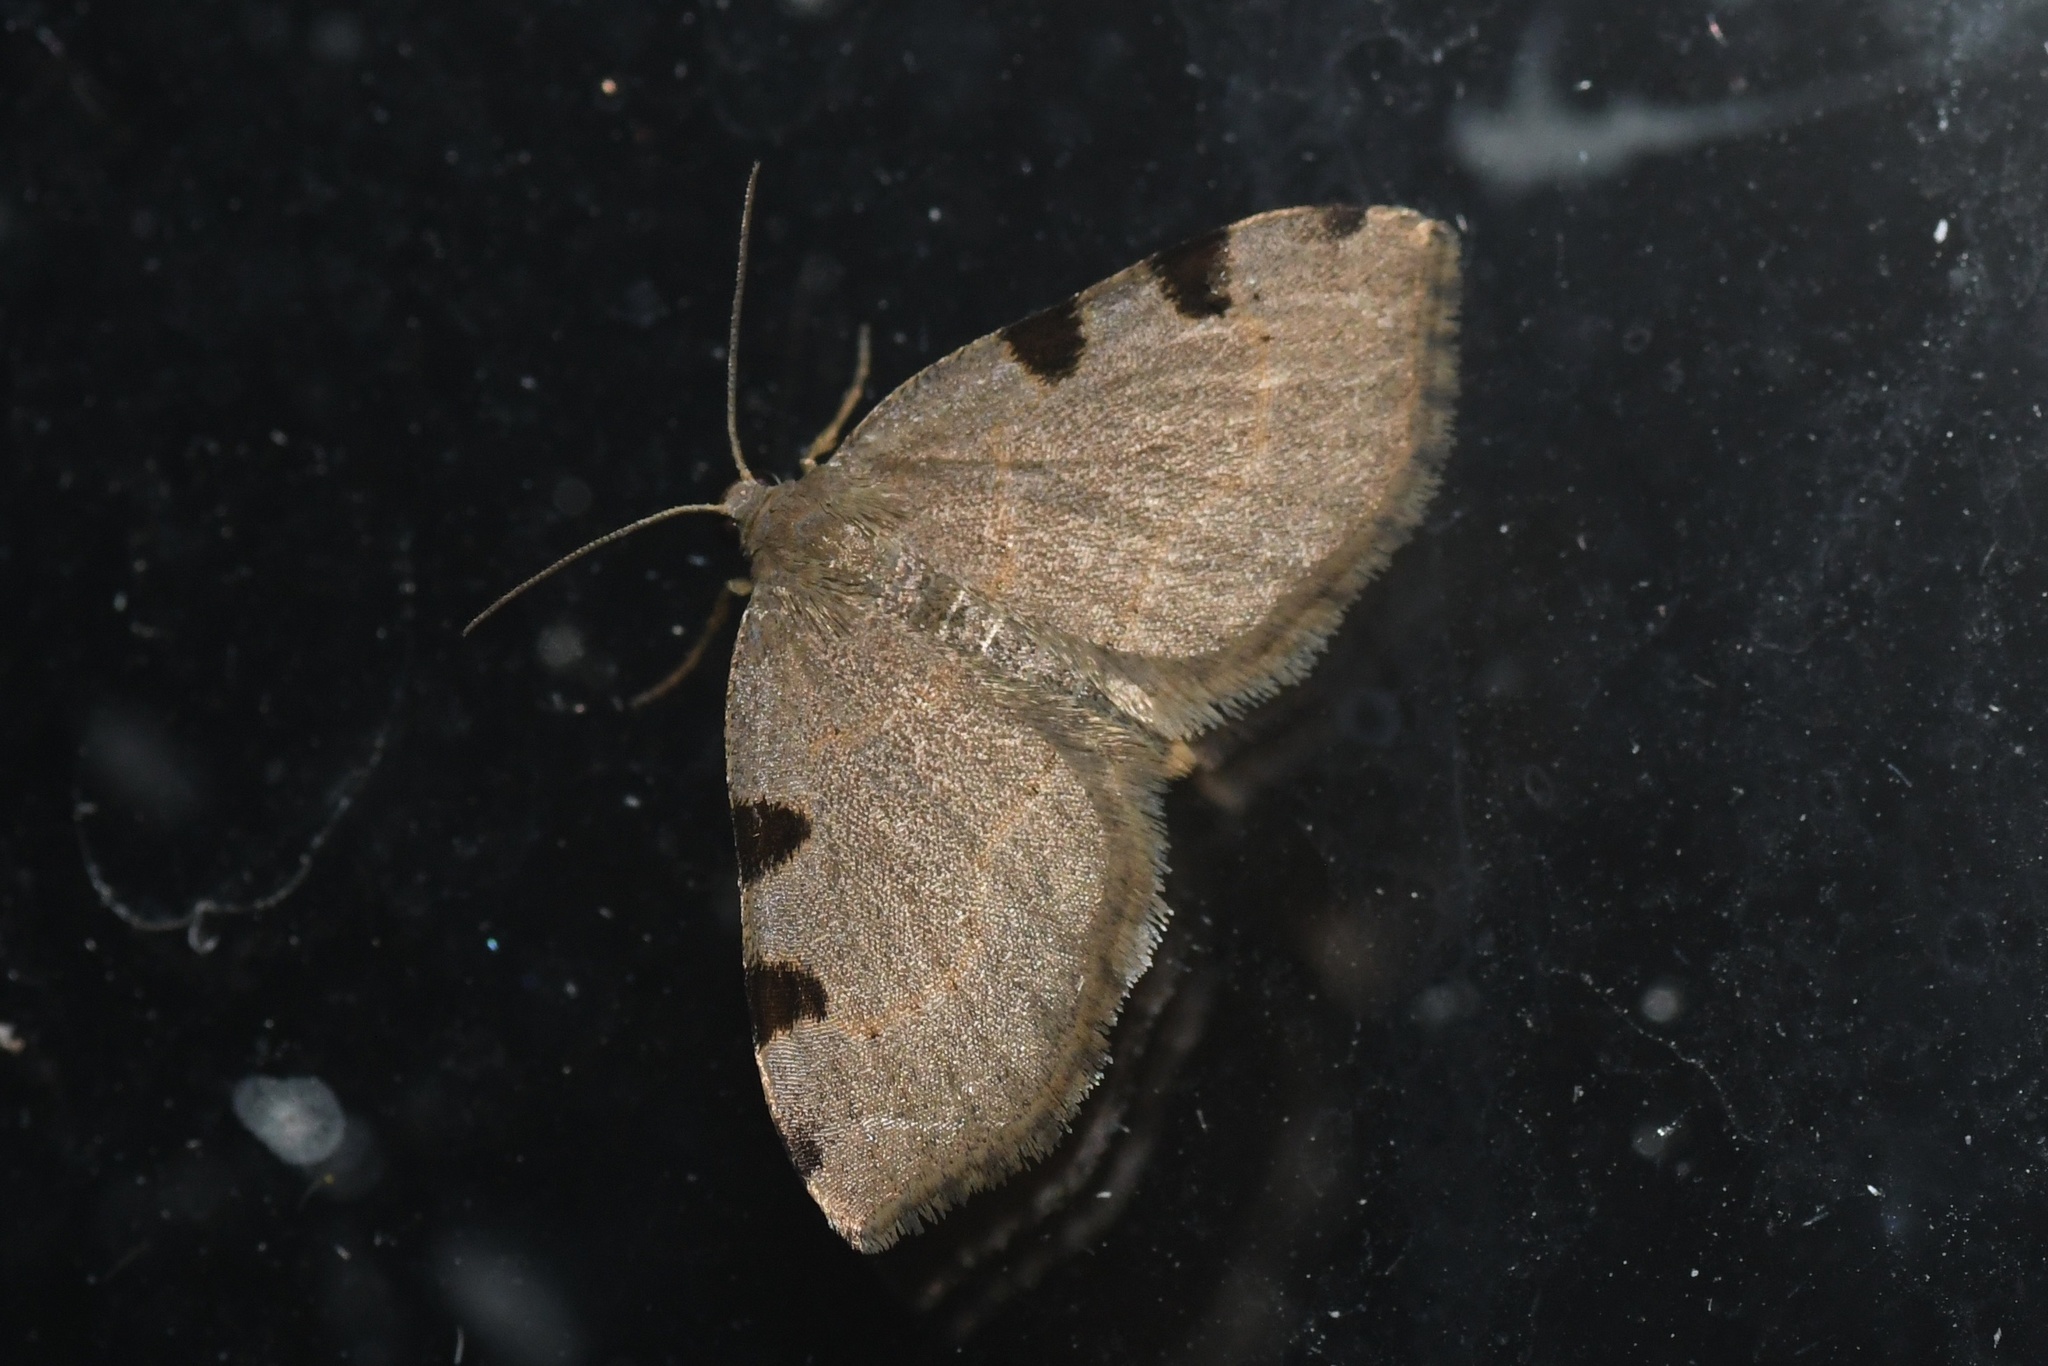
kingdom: Animalia
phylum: Arthropoda
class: Insecta
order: Lepidoptera
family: Geometridae
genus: Heterophleps
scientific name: Heterophleps triguttaria
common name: Three-spotted fillip
